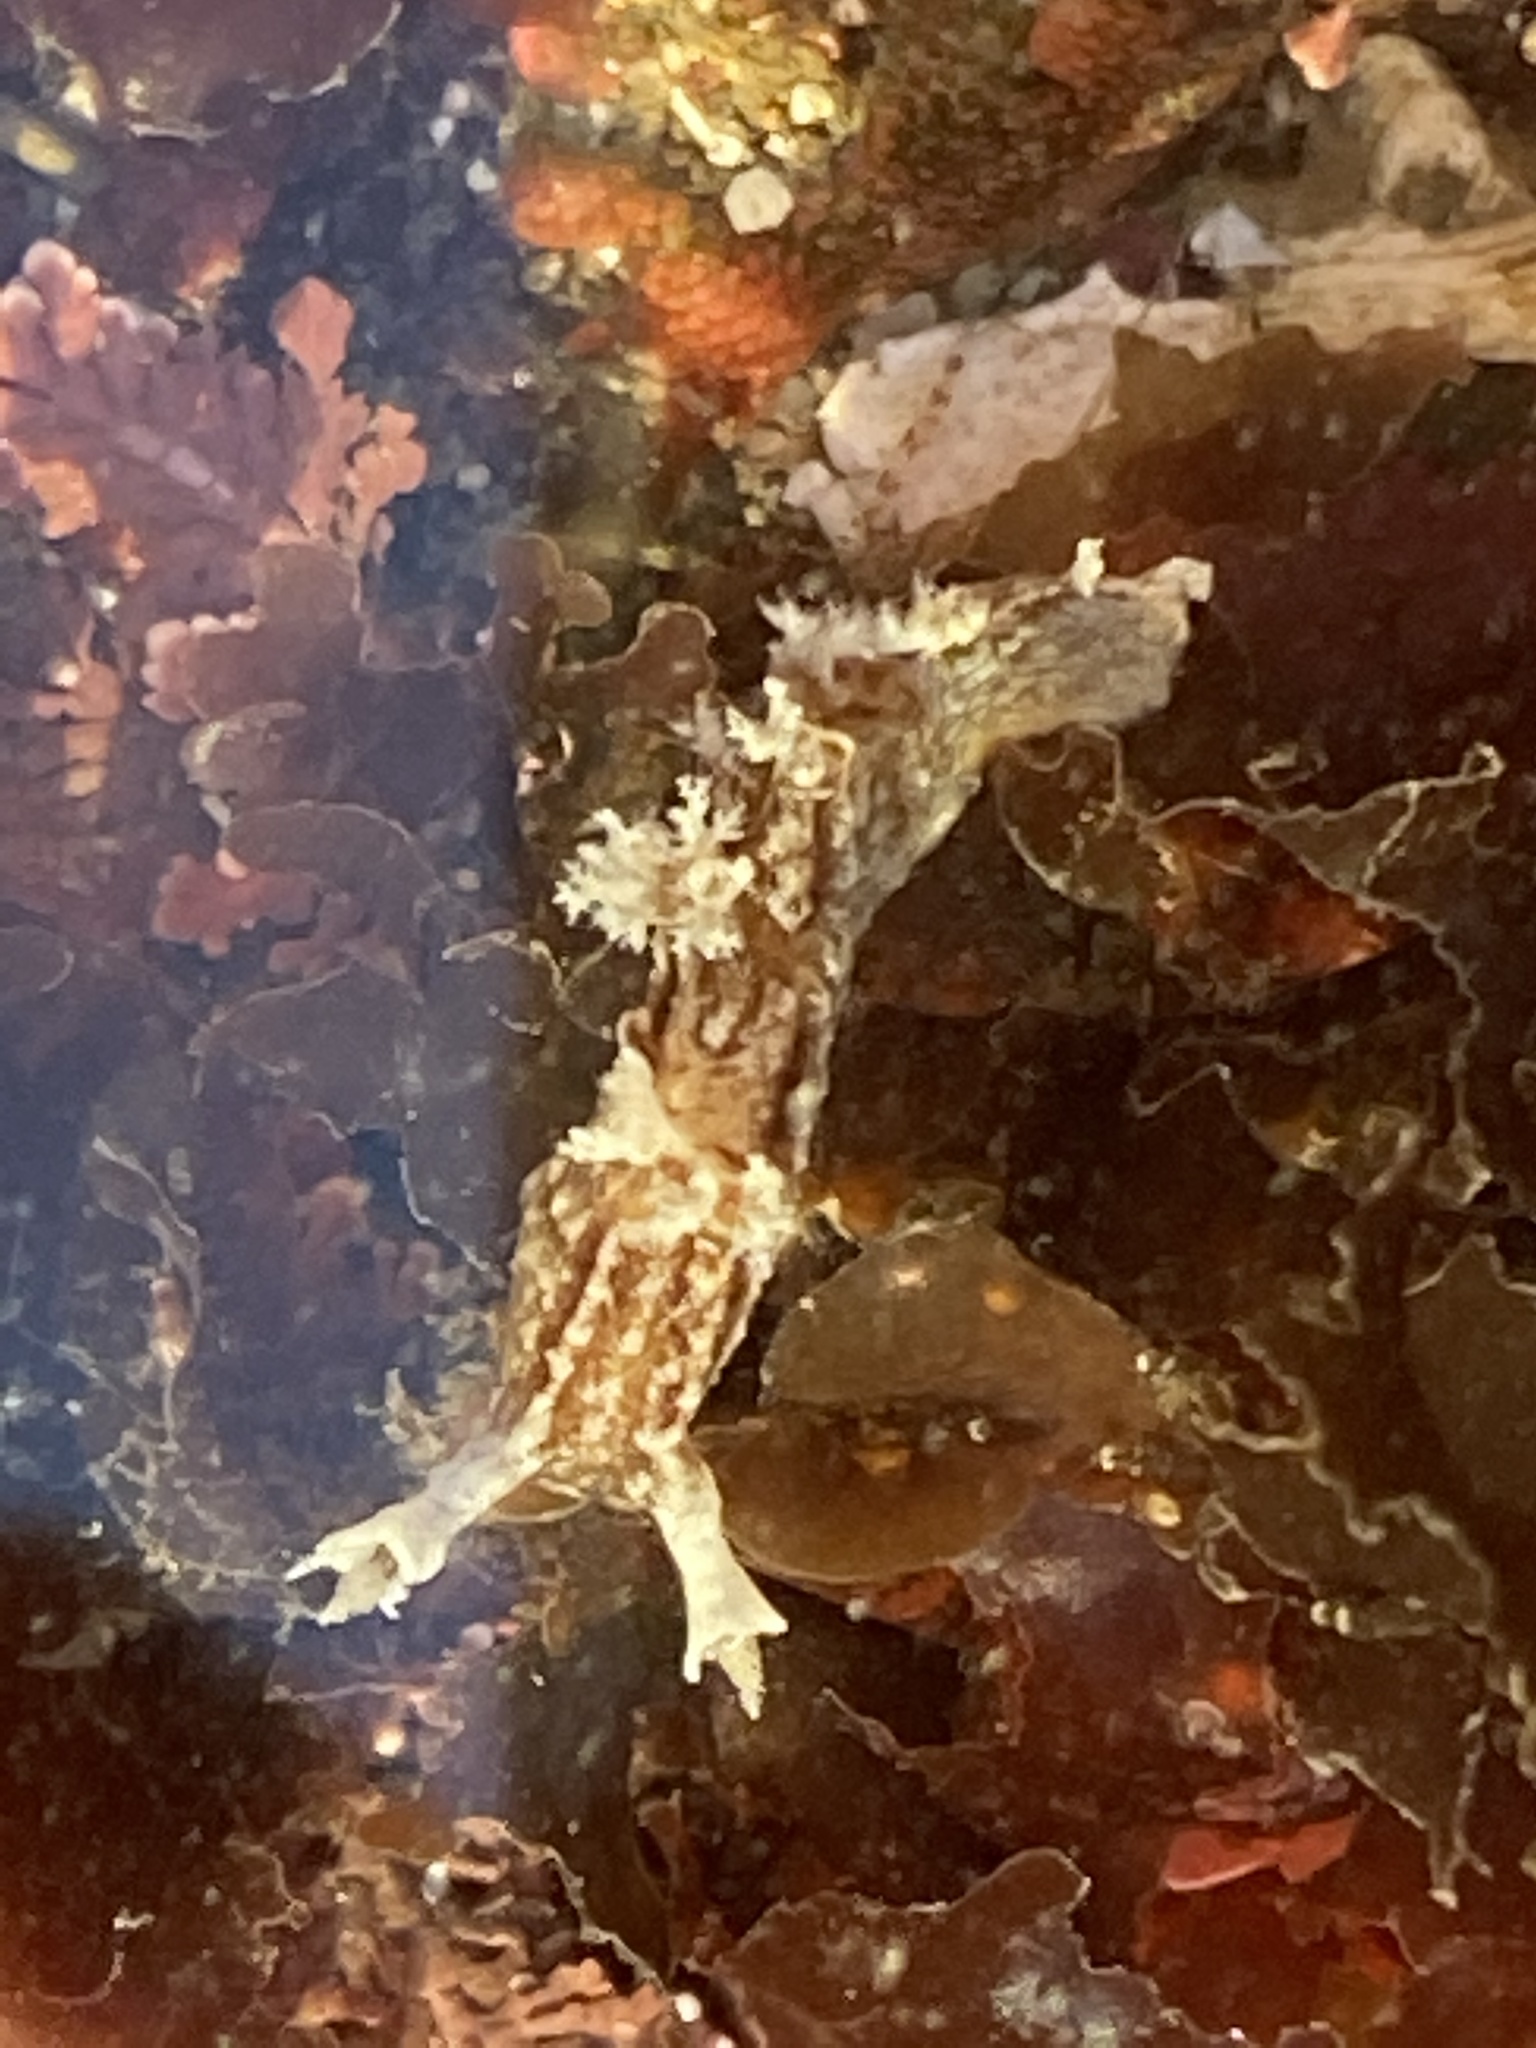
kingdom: Animalia
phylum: Mollusca
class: Gastropoda
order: Nudibranchia
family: Dendronotidae
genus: Dendronotus
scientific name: Dendronotus subramosus
